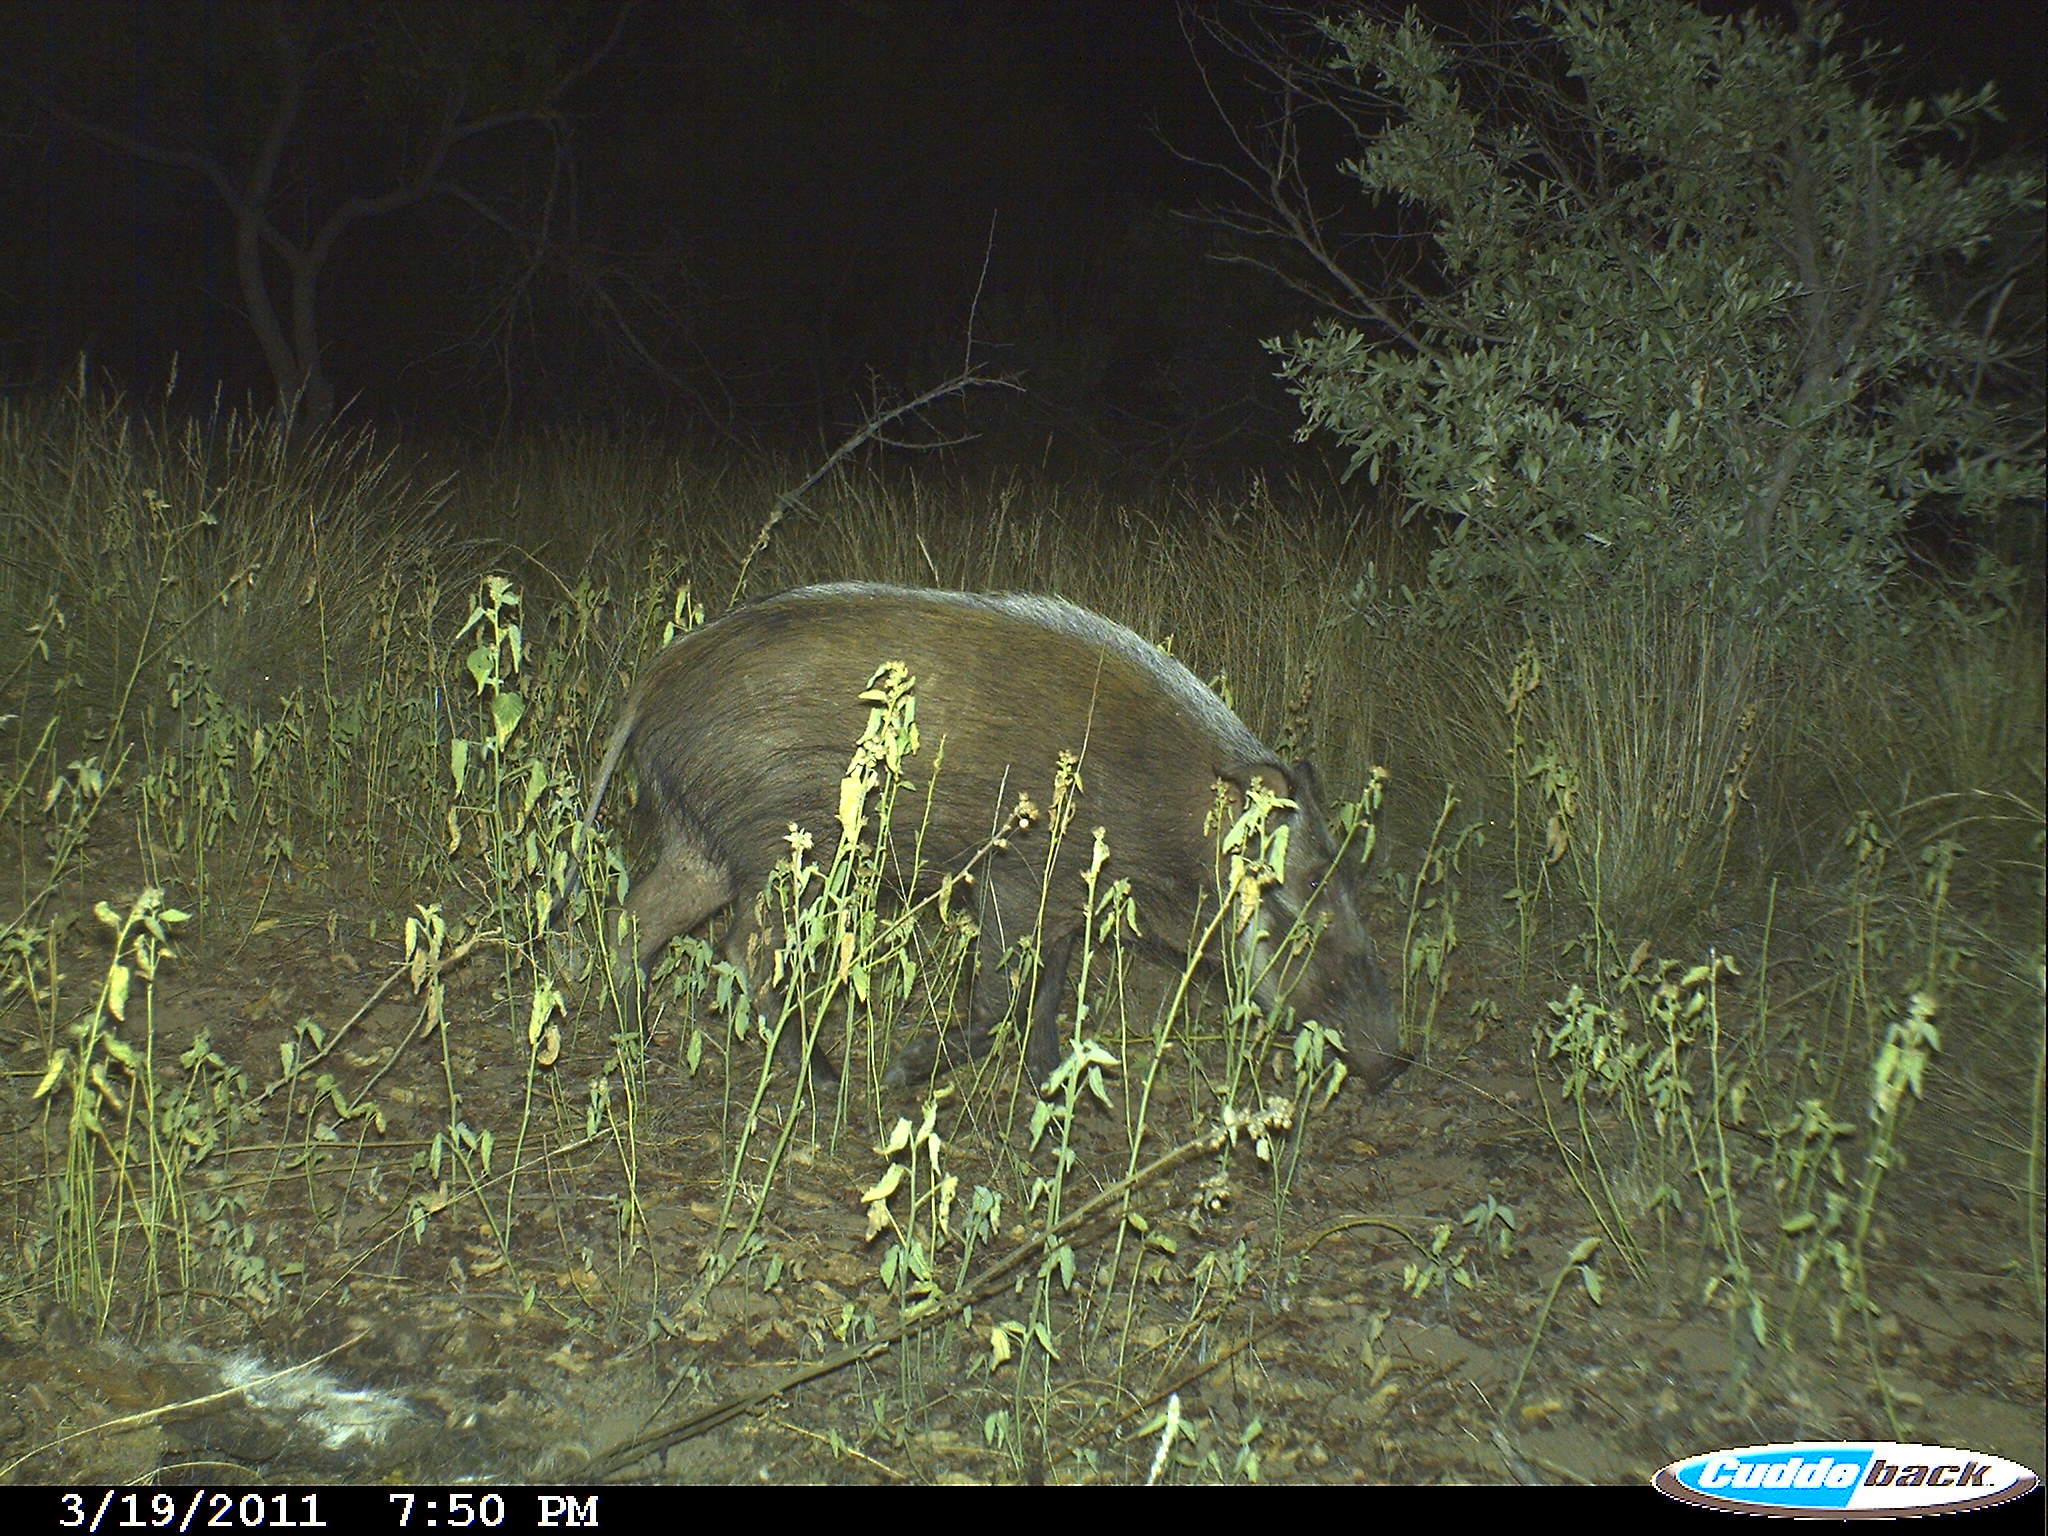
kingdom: Animalia
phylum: Chordata
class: Mammalia
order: Artiodactyla
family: Suidae
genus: Potamochoerus
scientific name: Potamochoerus larvatus
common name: Bushpig
